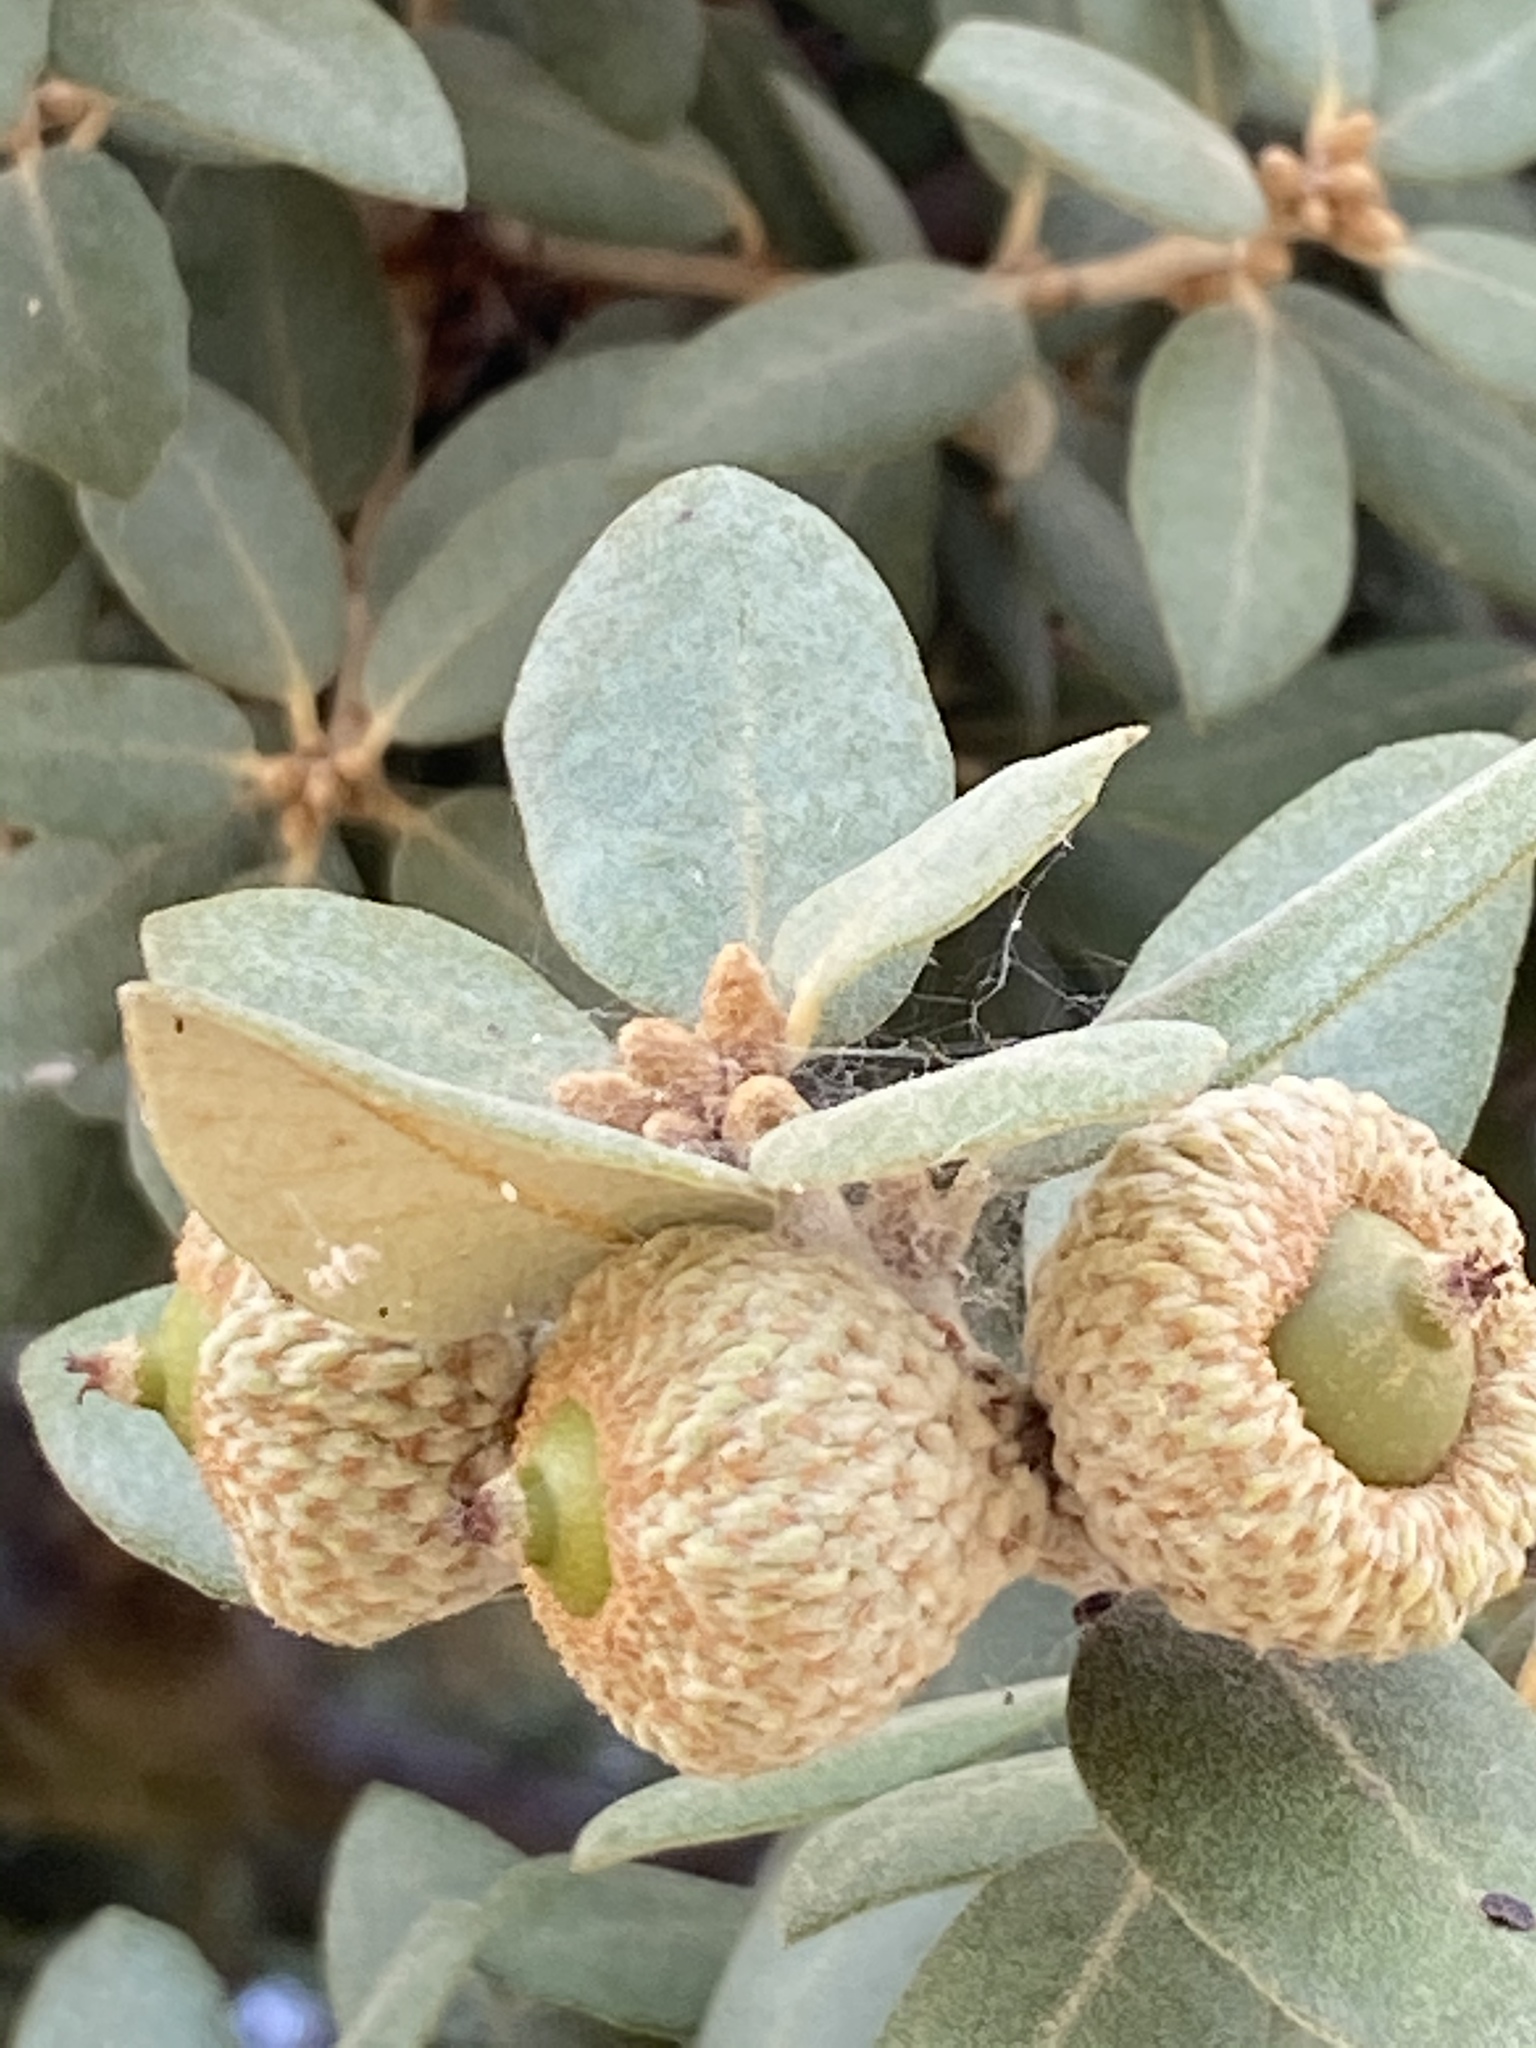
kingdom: Plantae
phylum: Tracheophyta
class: Magnoliopsida
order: Fagales
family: Fagaceae
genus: Quercus
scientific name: Quercus rotundifolia
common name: Holm oak
